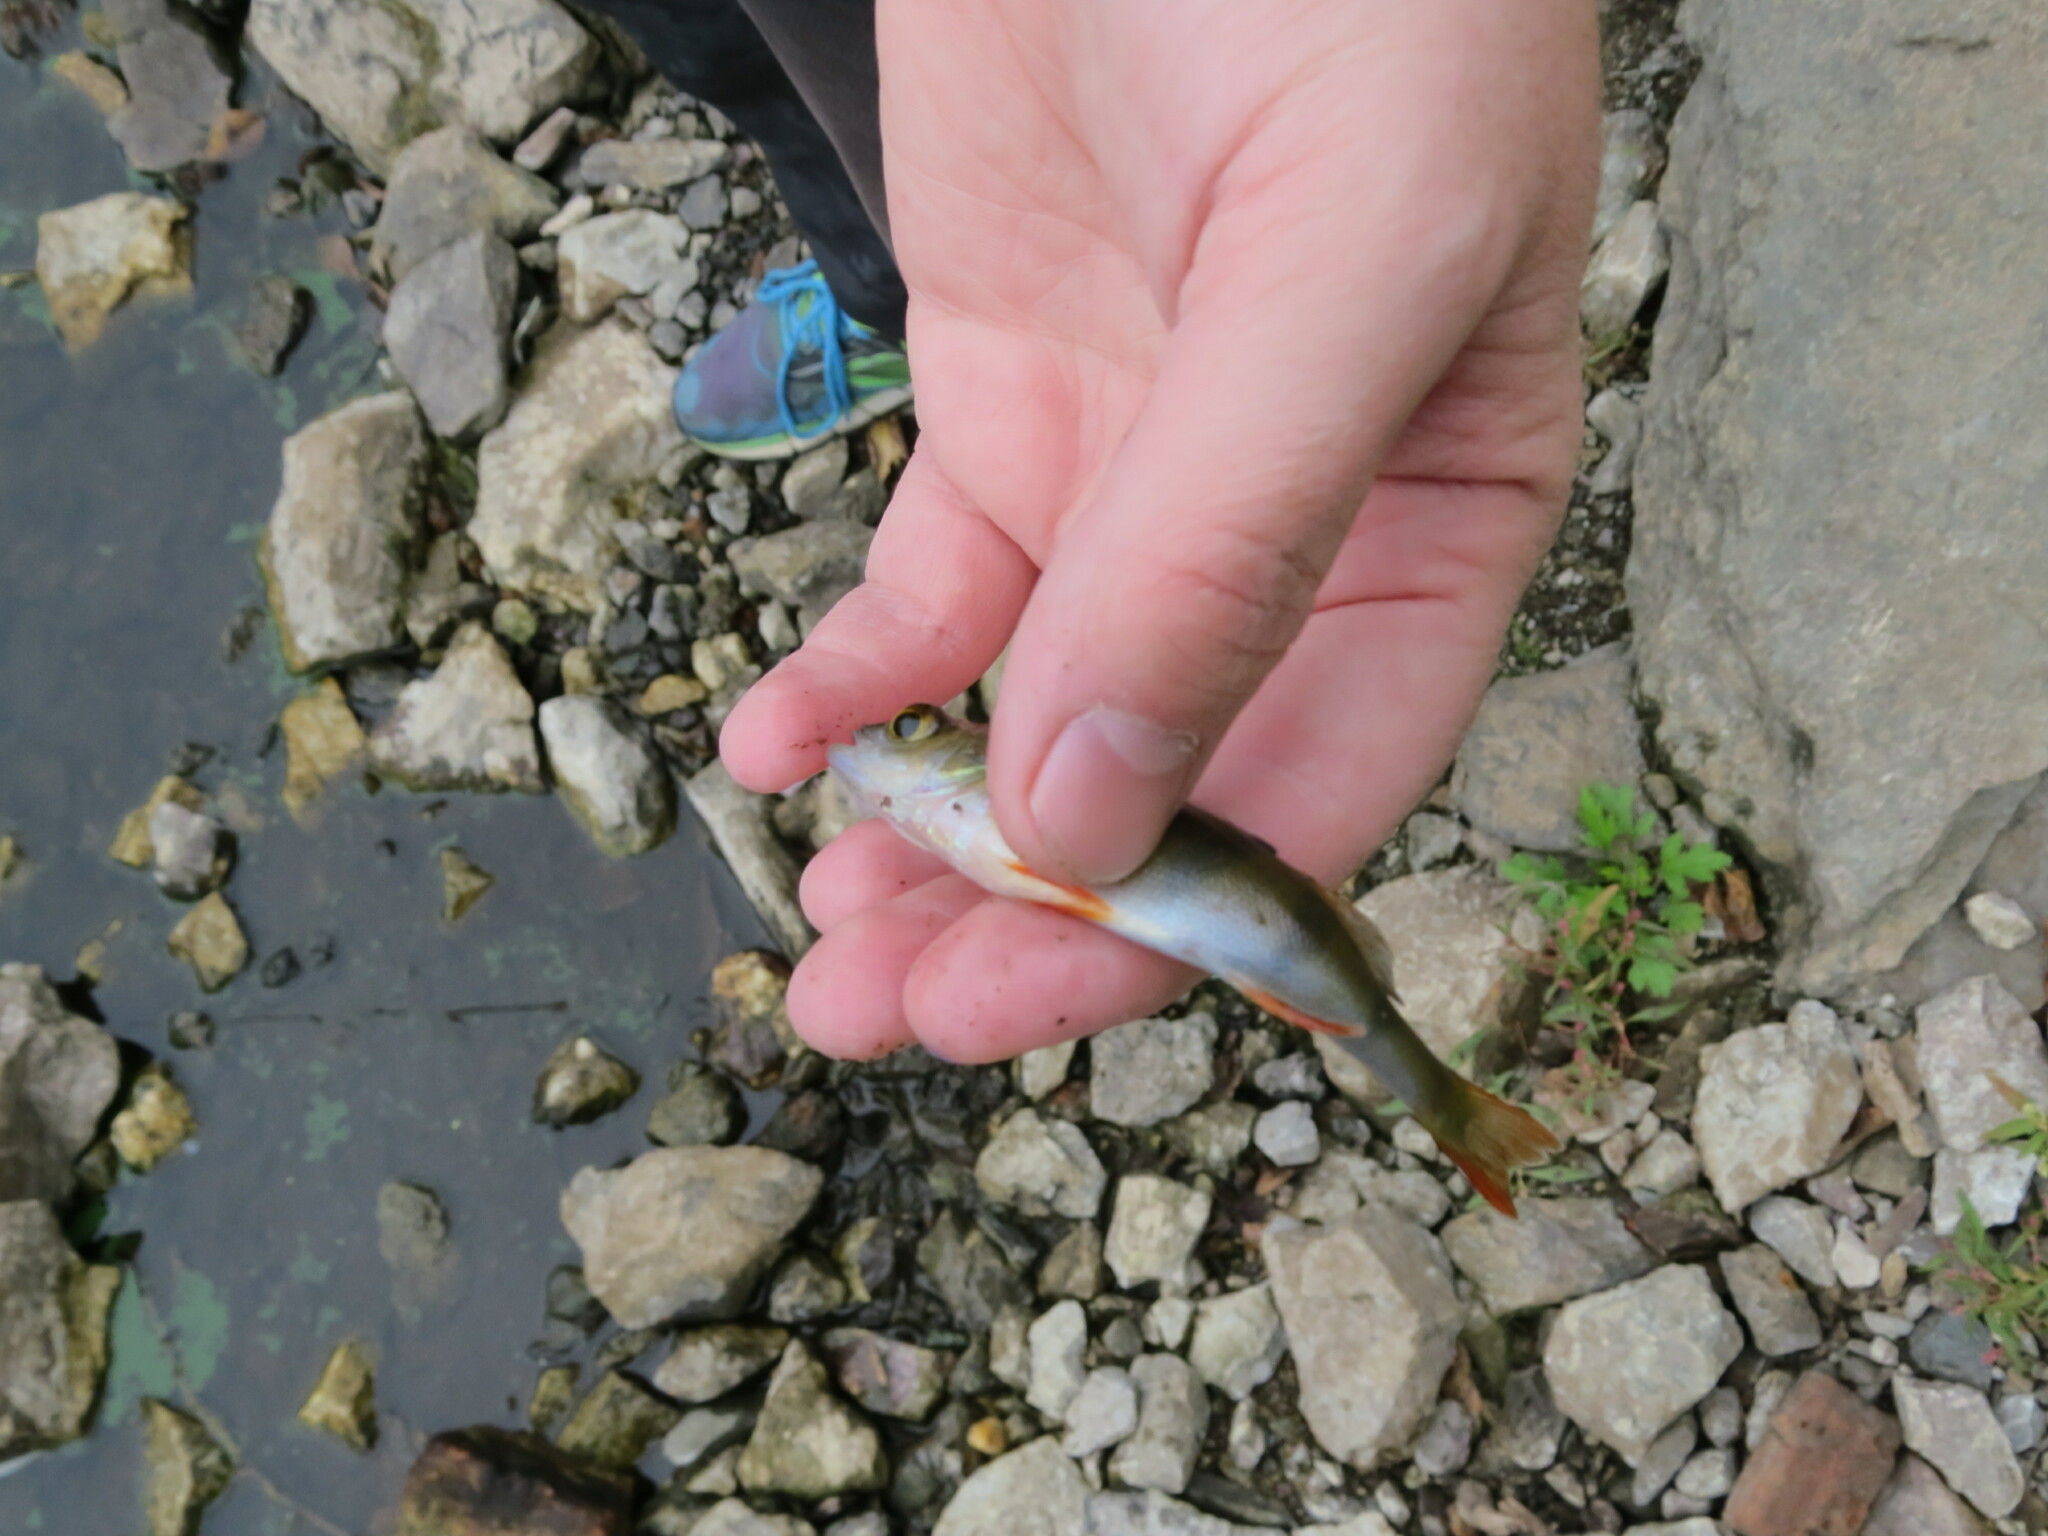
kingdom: Animalia
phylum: Chordata
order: Perciformes
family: Percidae
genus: Perca
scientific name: Perca fluviatilis
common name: Perch
